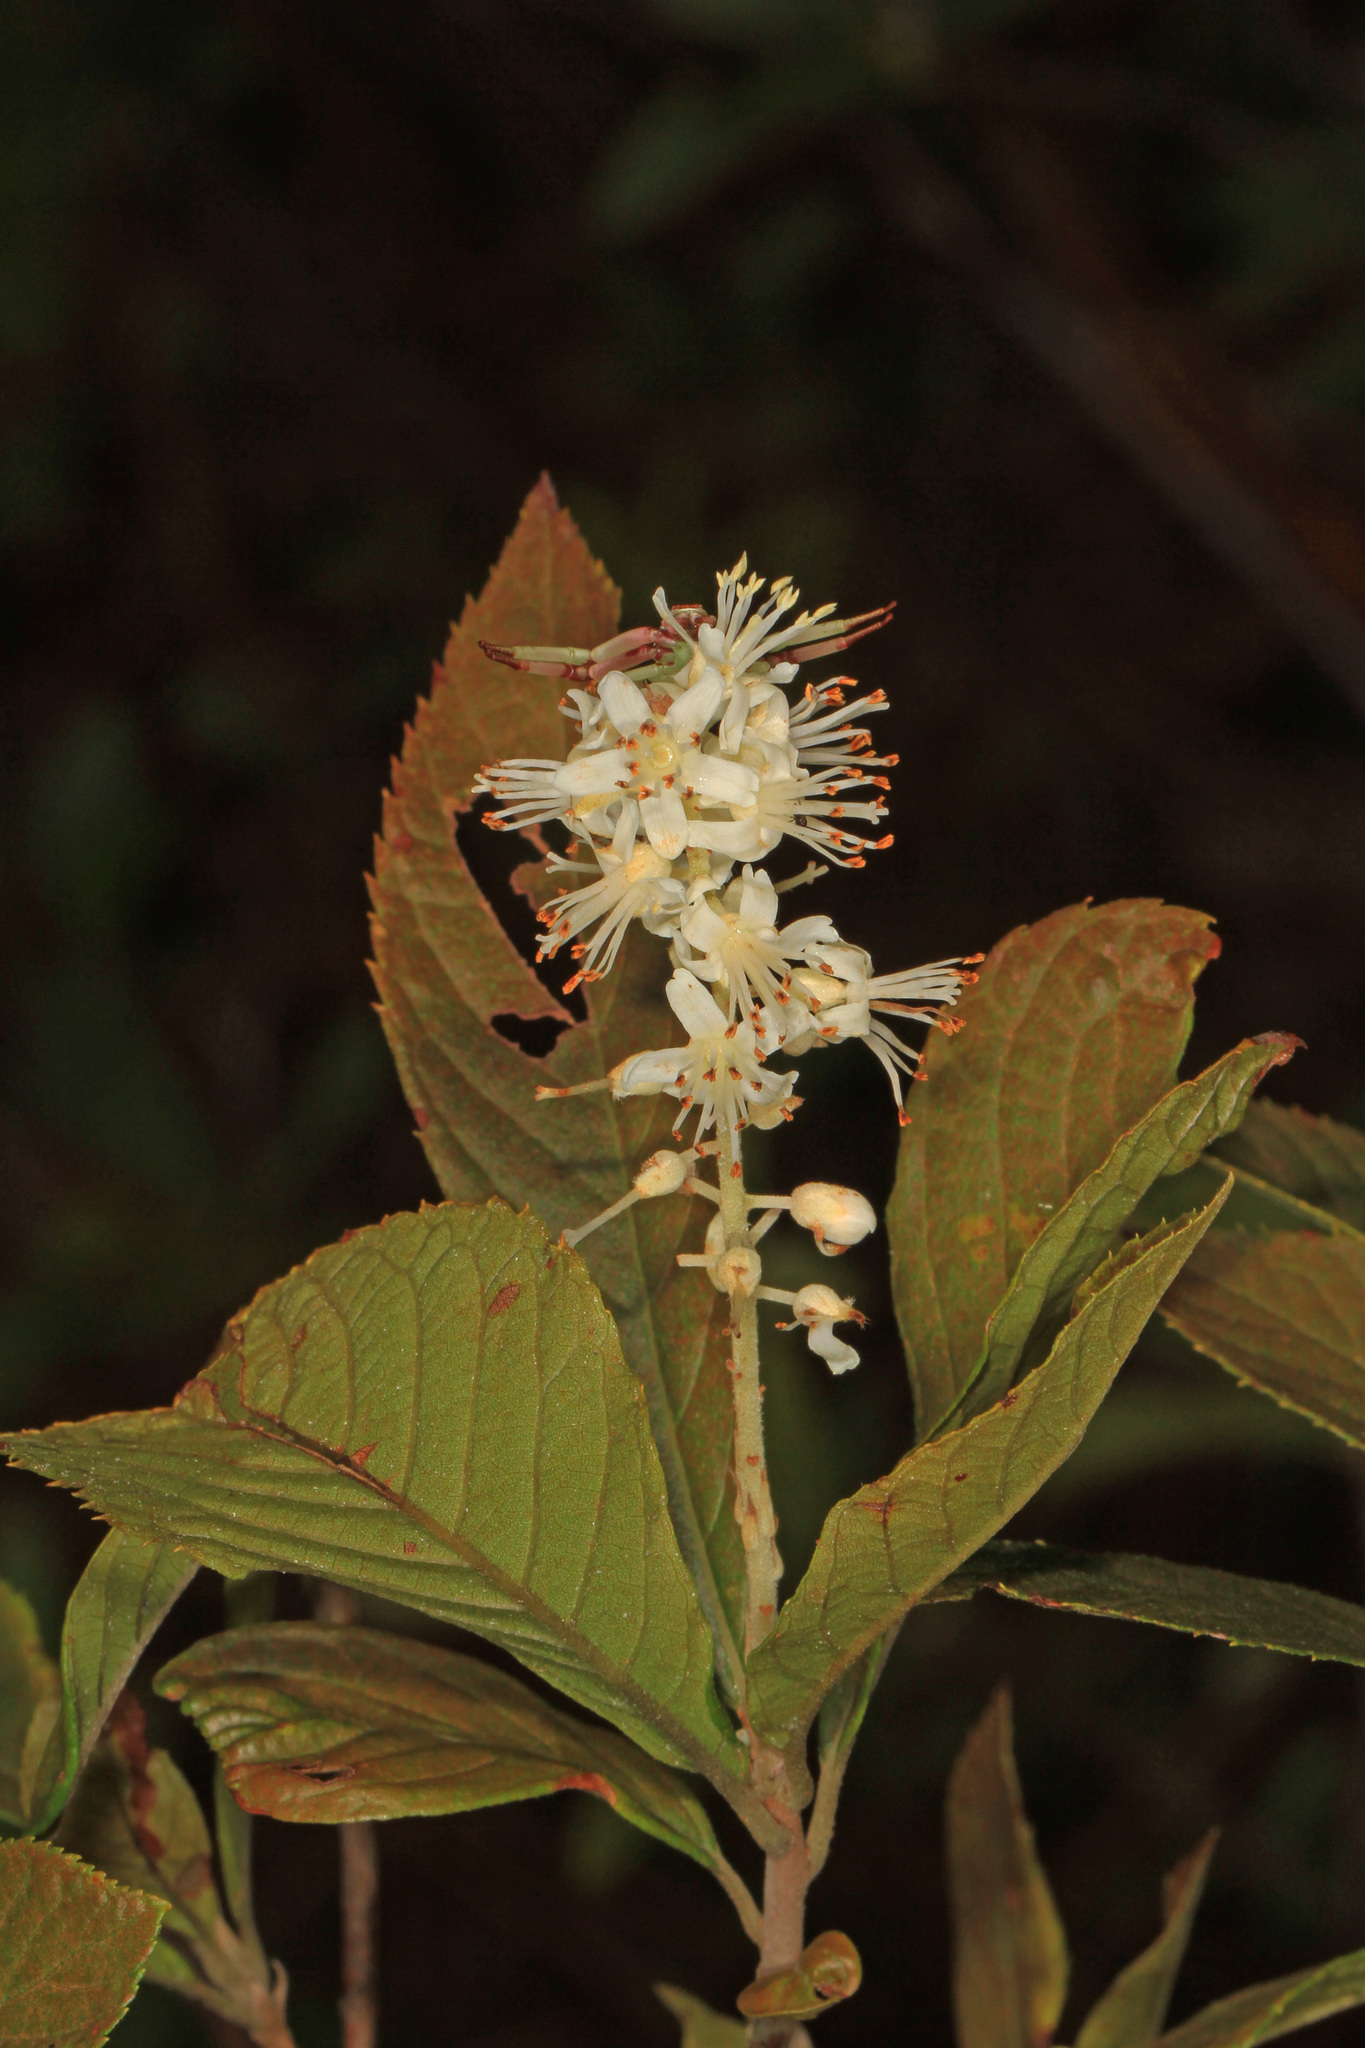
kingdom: Plantae
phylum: Tracheophyta
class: Magnoliopsida
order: Ericales
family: Clethraceae
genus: Clethra
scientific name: Clethra alnifolia
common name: Sweet pepperbush
